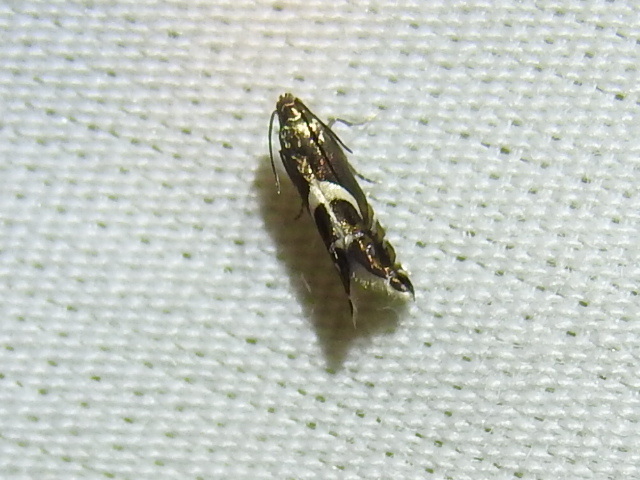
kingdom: Animalia
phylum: Arthropoda
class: Insecta
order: Lepidoptera
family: Glyphipterigidae
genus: Glyphipterix
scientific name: Glyphipterix Diploschizia impigritella
